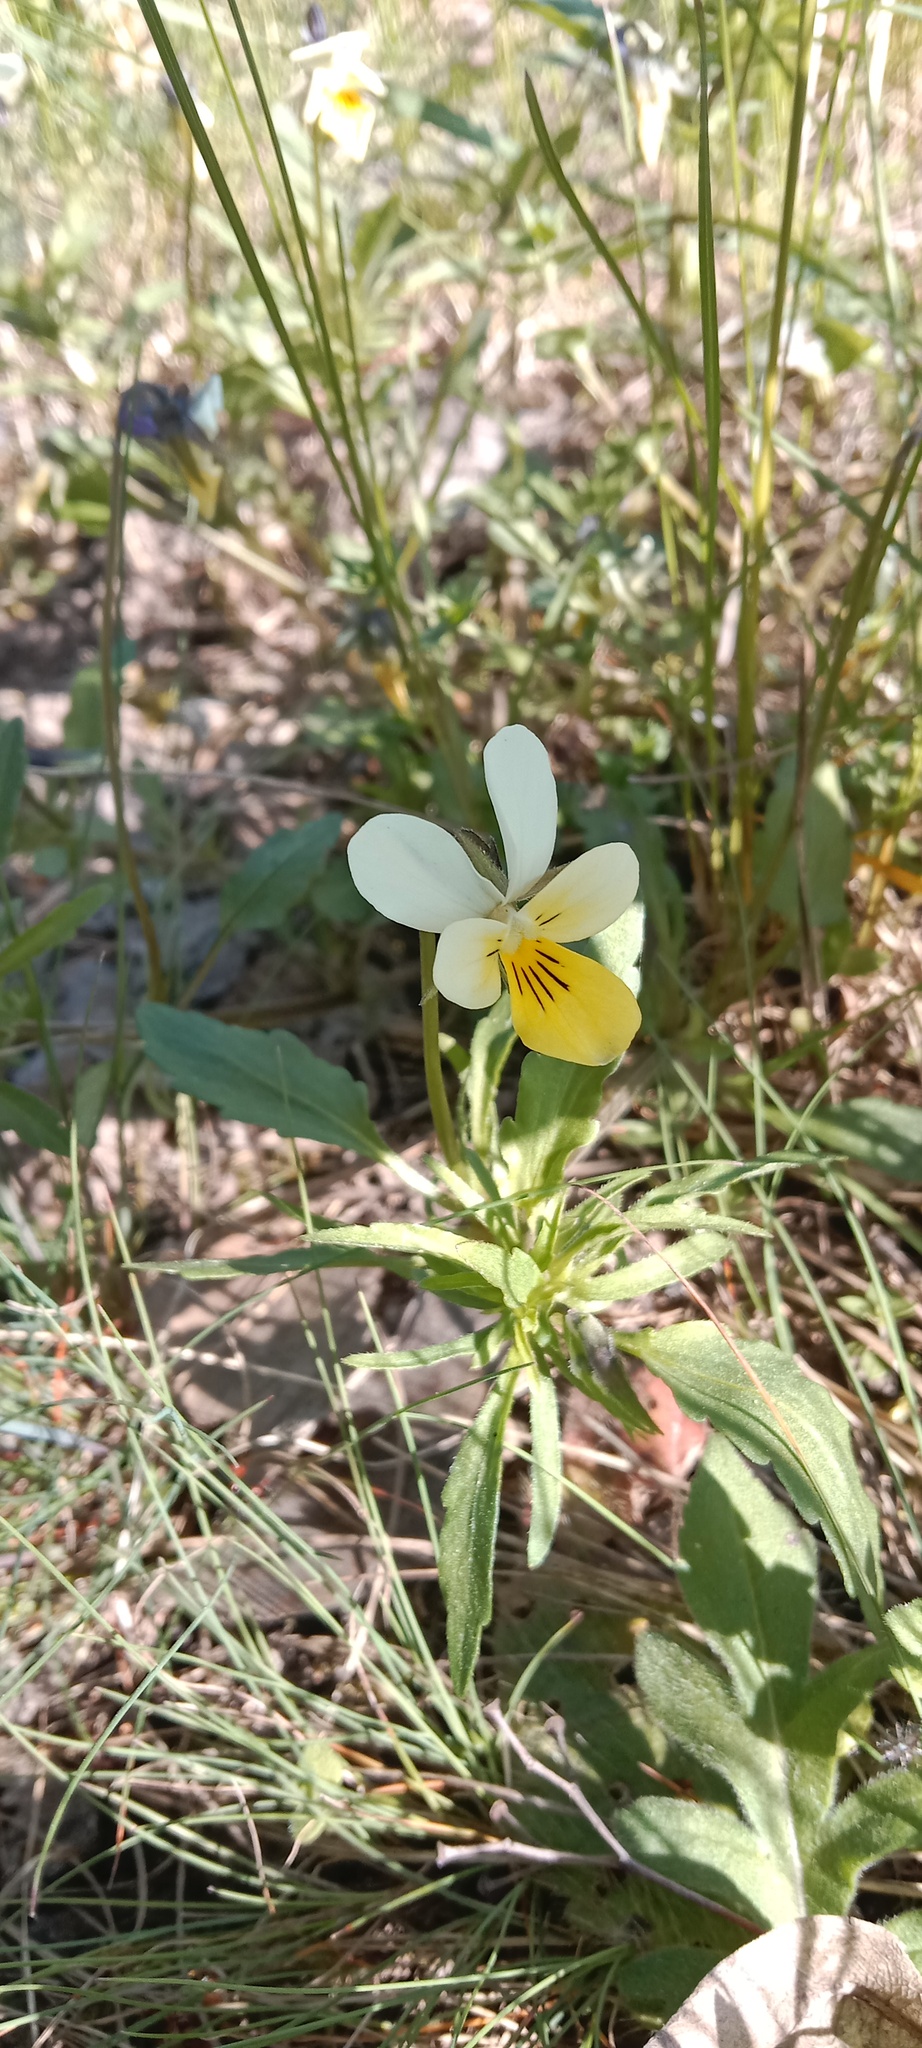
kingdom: Plantae
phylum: Tracheophyta
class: Magnoliopsida
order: Malpighiales
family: Violaceae
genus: Viola
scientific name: Viola arvensis
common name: Field pansy
